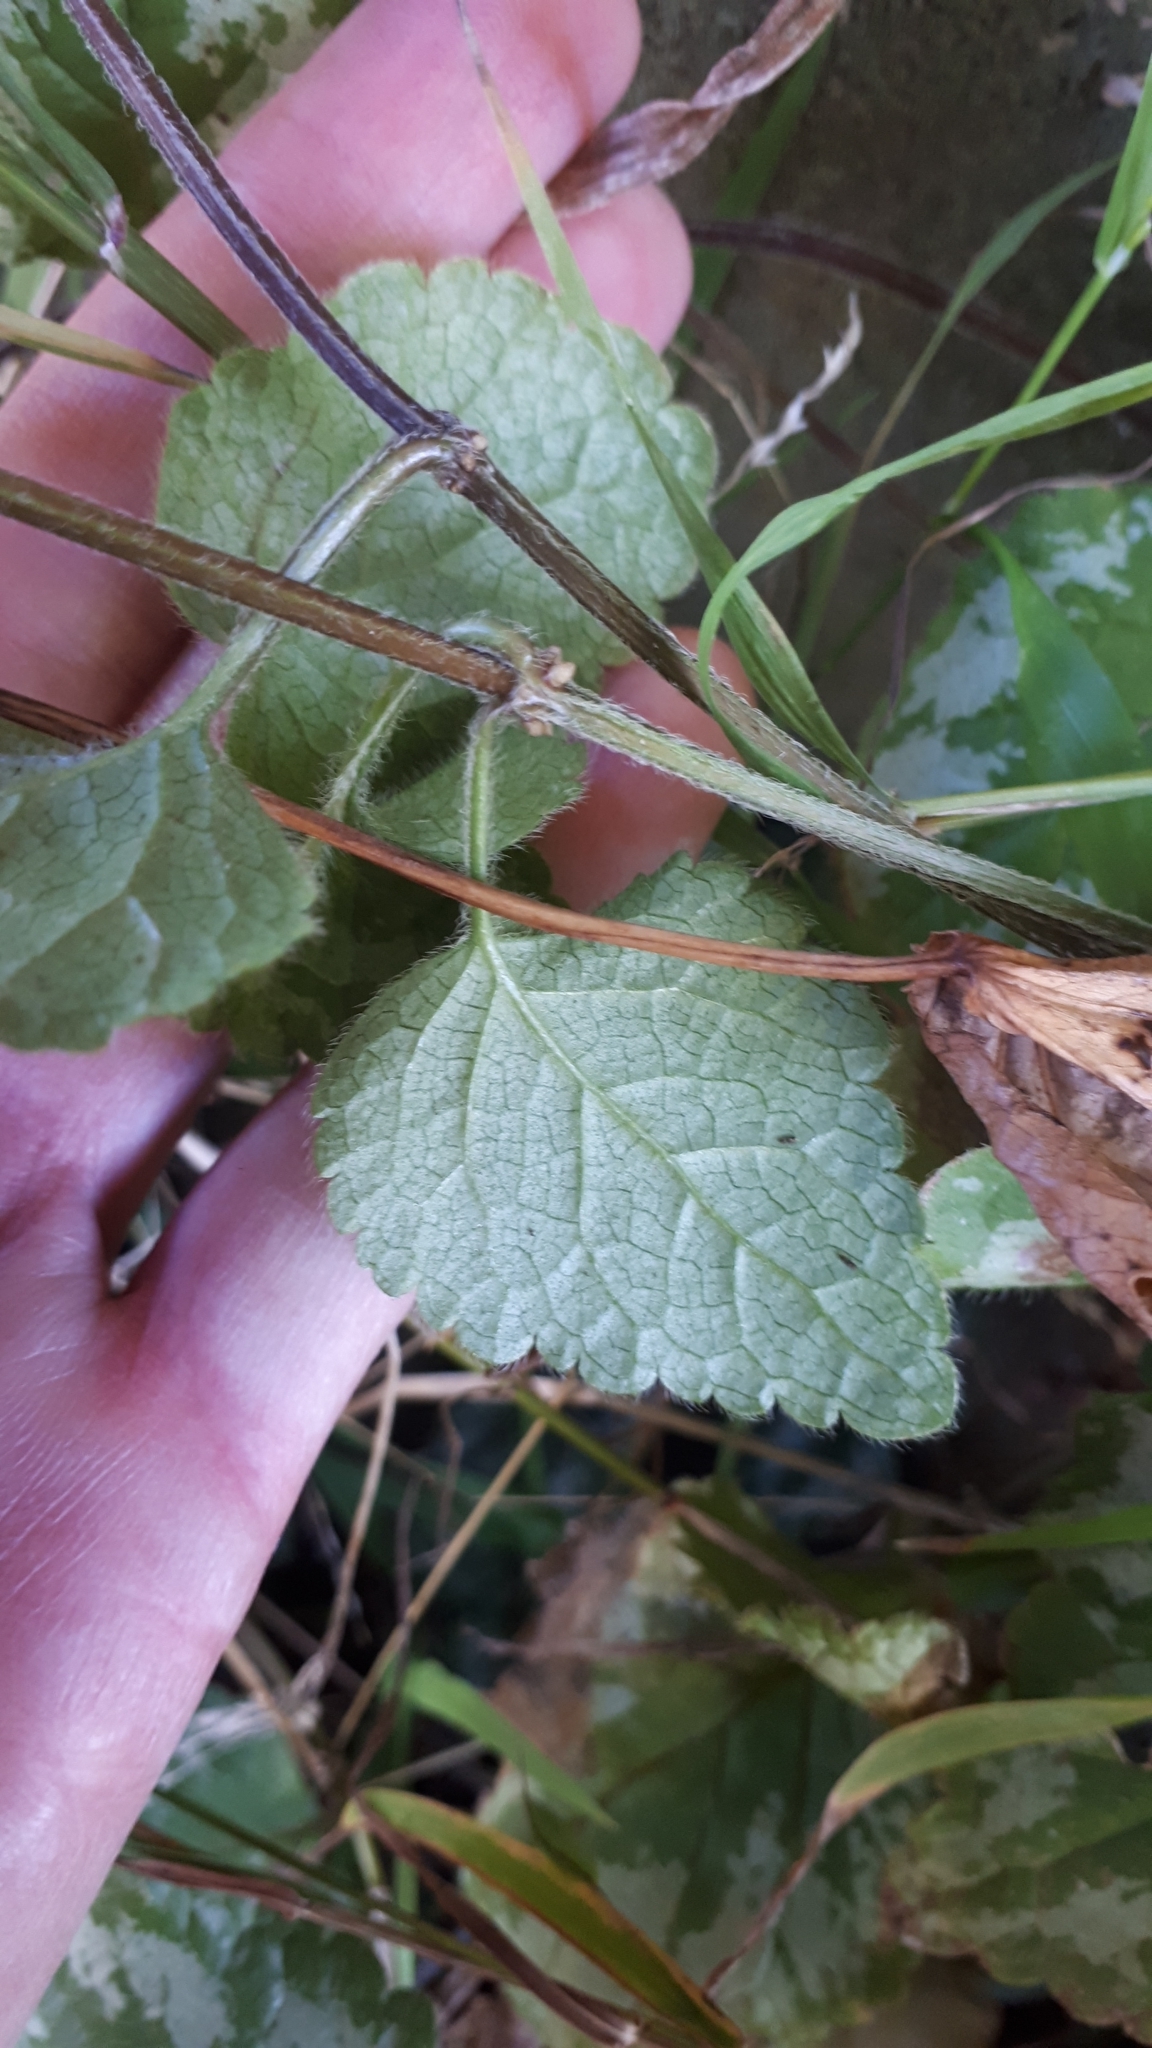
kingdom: Plantae
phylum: Tracheophyta
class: Magnoliopsida
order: Lamiales
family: Lamiaceae
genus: Lamium
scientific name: Lamium galeobdolon
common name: Yellow archangel
